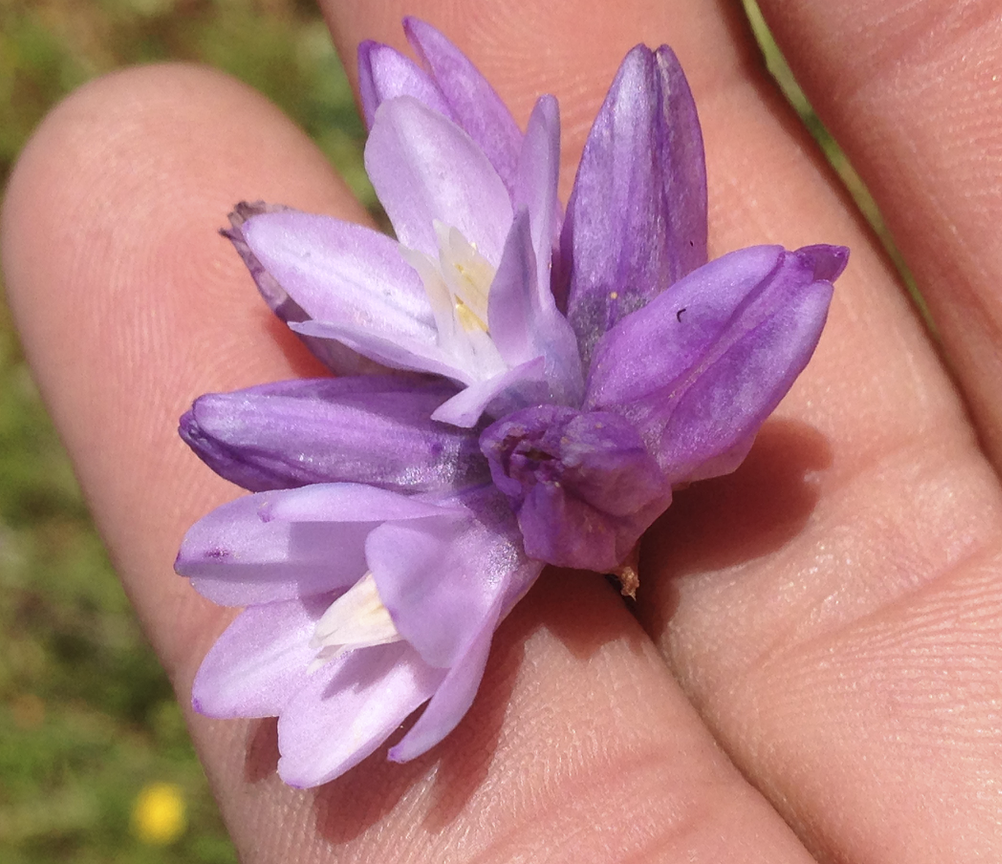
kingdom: Plantae
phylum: Tracheophyta
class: Liliopsida
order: Asparagales
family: Asparagaceae
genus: Dipterostemon
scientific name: Dipterostemon capitatus
